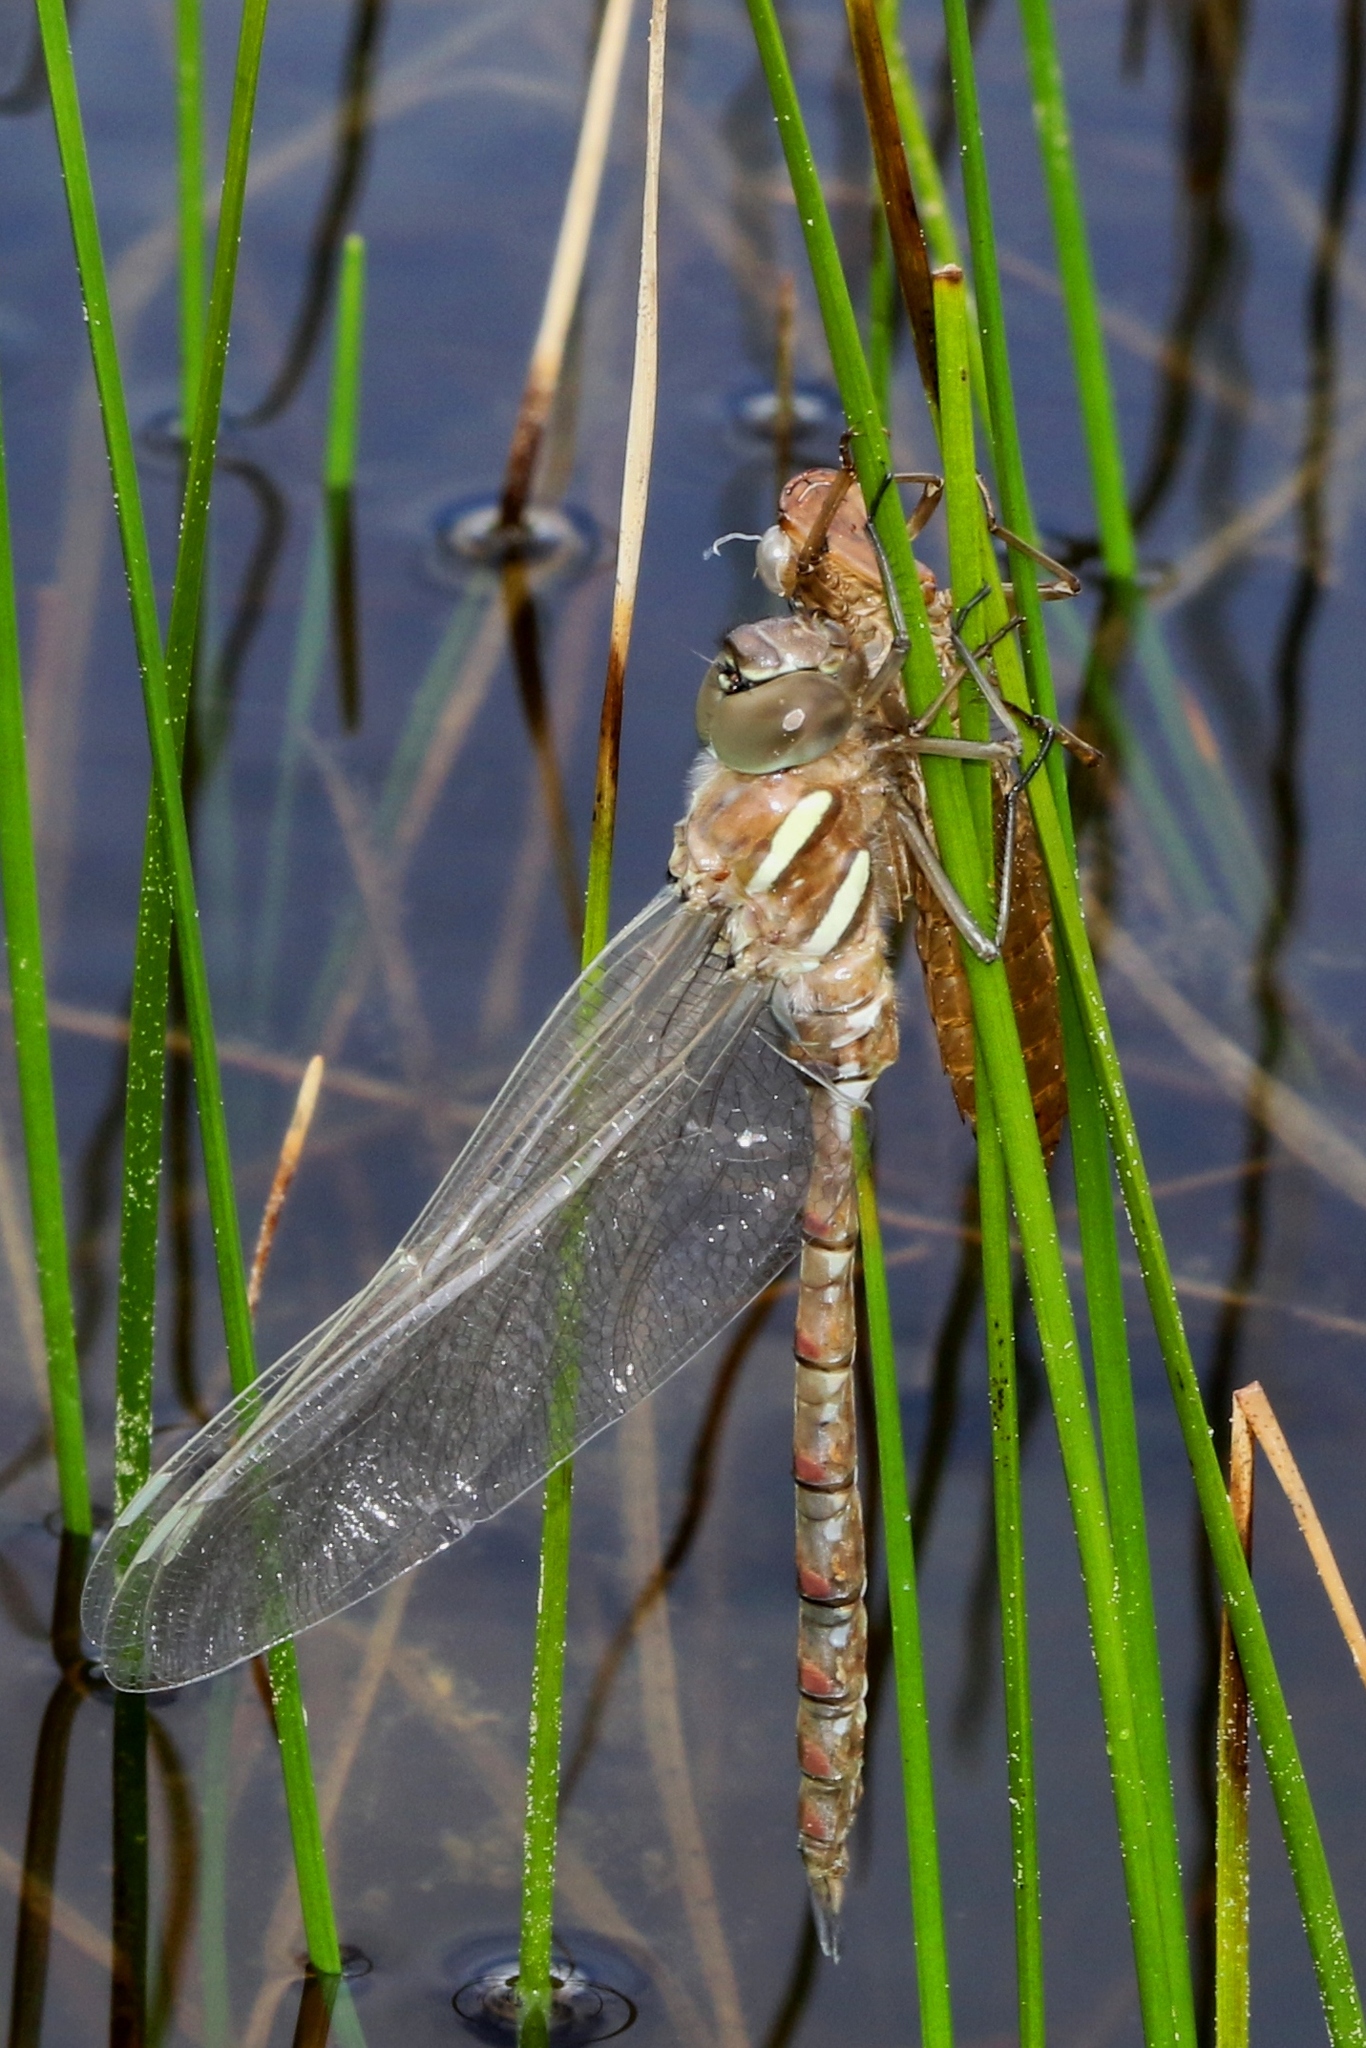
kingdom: Animalia
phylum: Arthropoda
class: Insecta
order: Odonata
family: Aeshnidae
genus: Aeshna
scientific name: Aeshna tuberculifera
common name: Aeschne à tubercules
